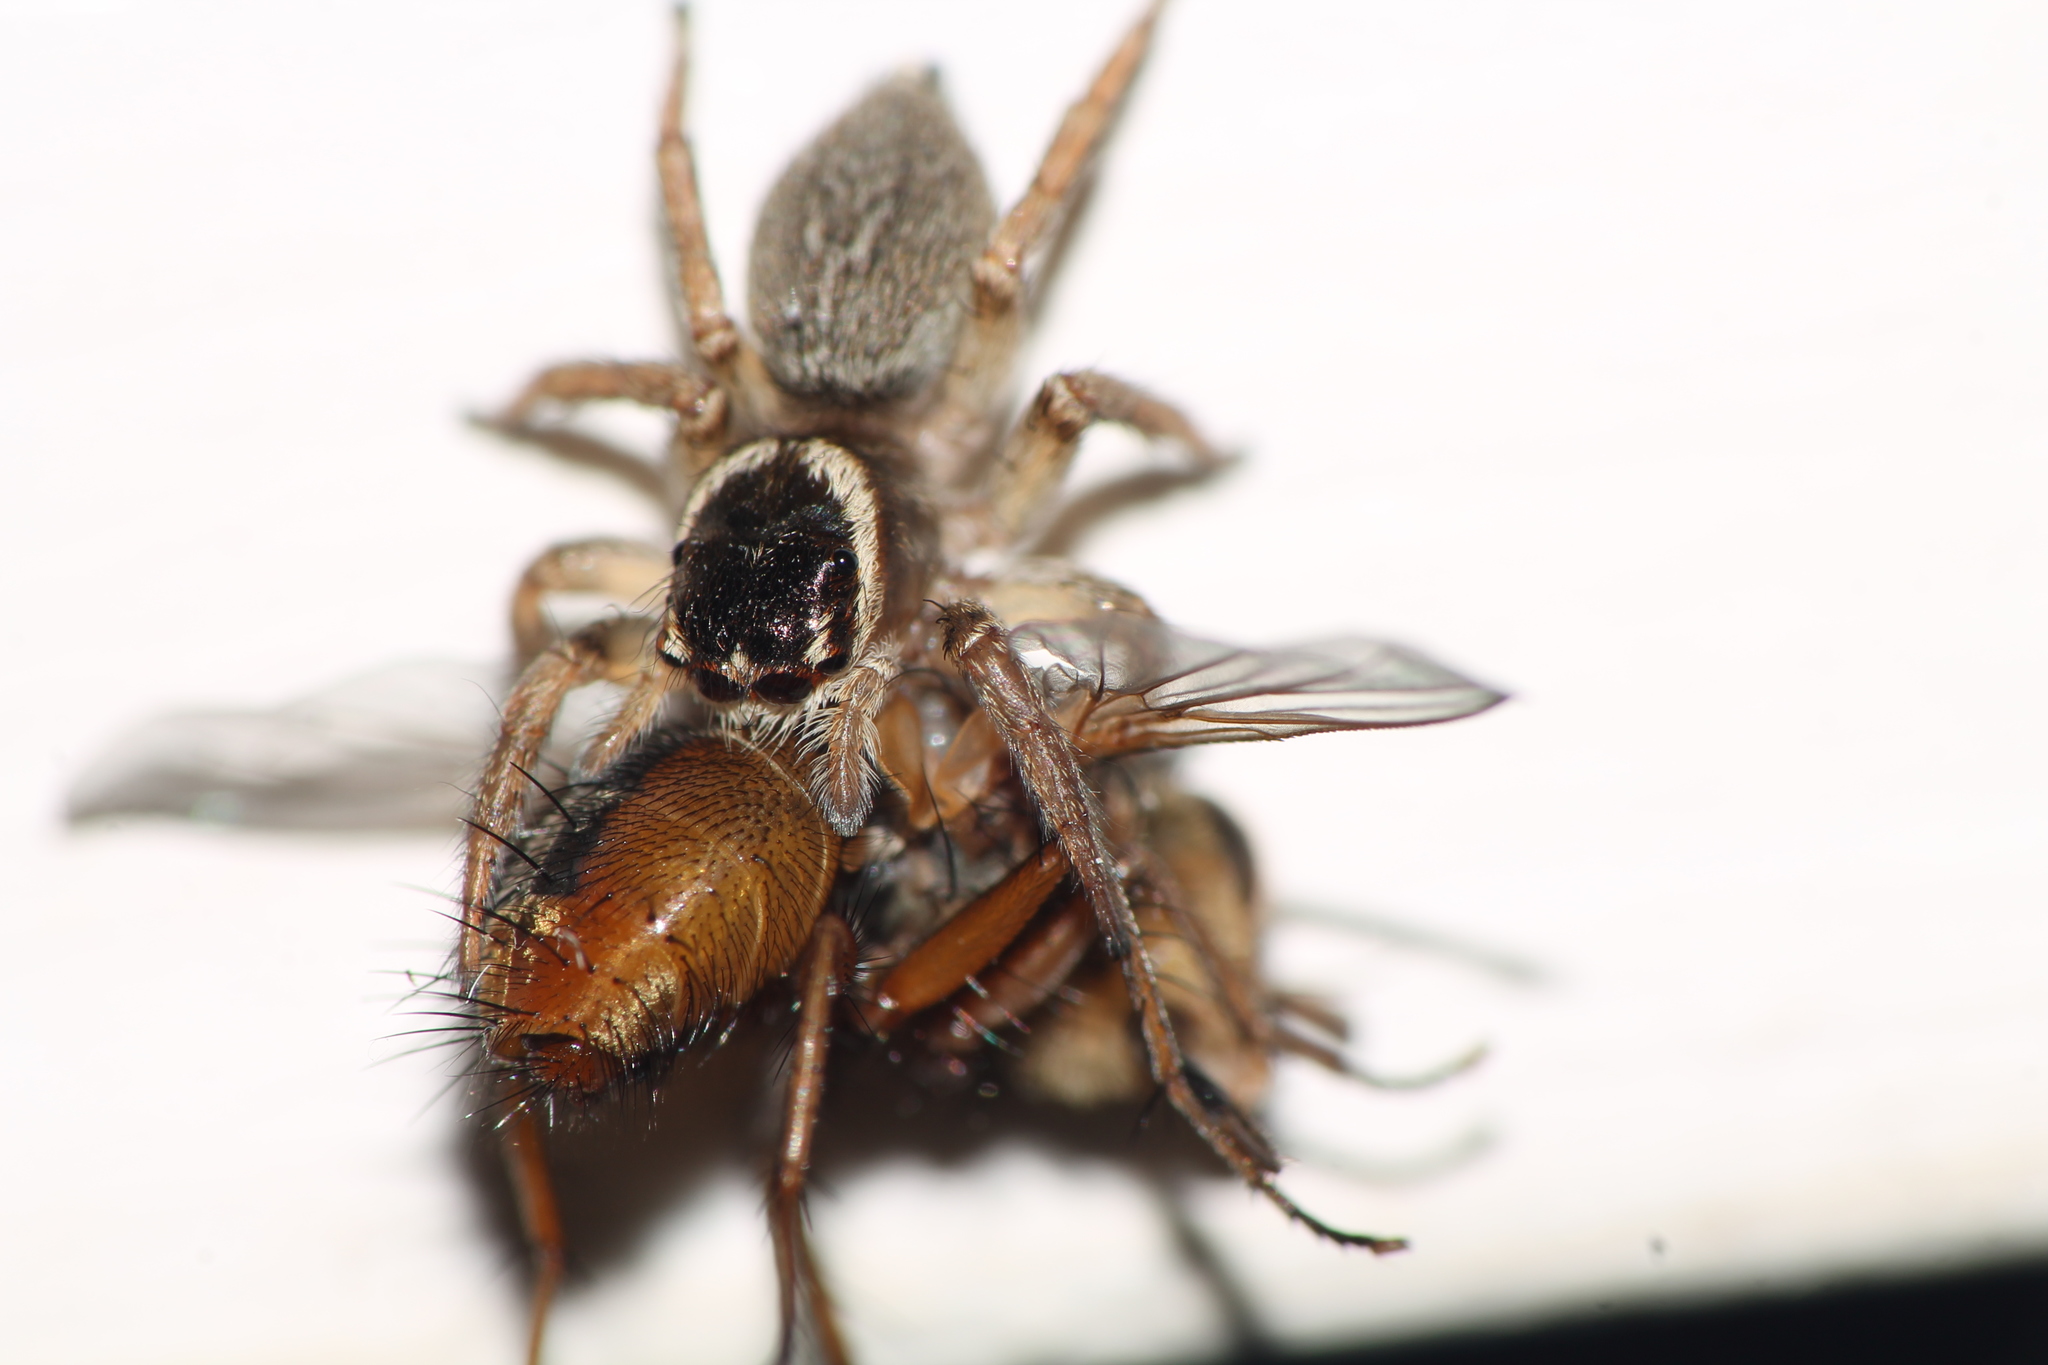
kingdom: Animalia
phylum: Arthropoda
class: Arachnida
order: Araneae
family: Salticidae
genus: Maratus
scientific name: Maratus griseus
